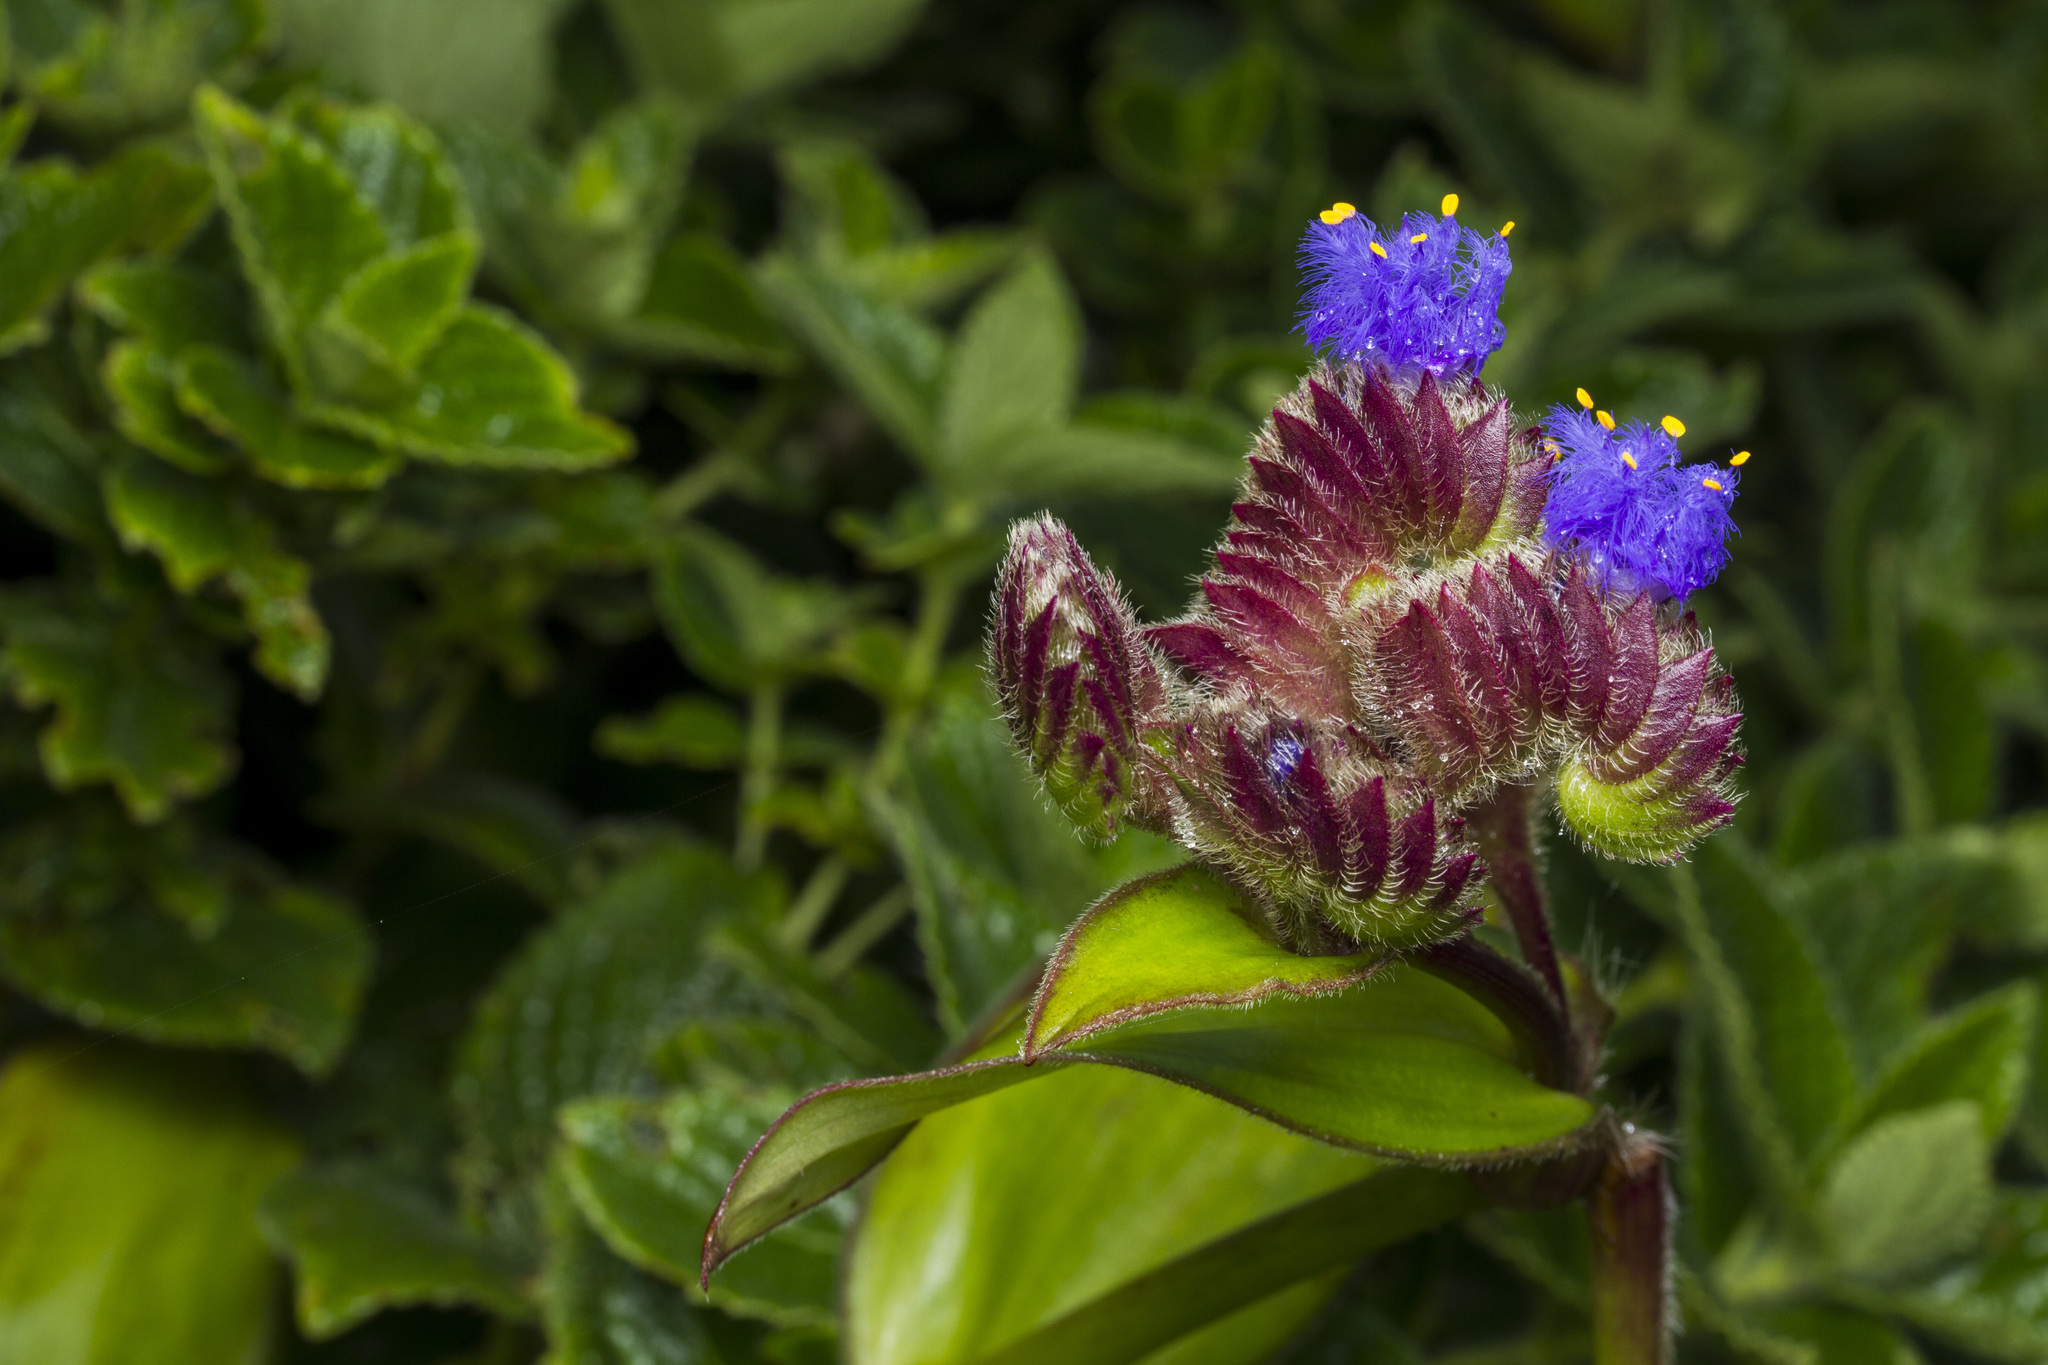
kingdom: Plantae
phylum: Tracheophyta
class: Liliopsida
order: Commelinales
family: Commelinaceae
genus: Cyanotis
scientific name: Cyanotis tuberosa
